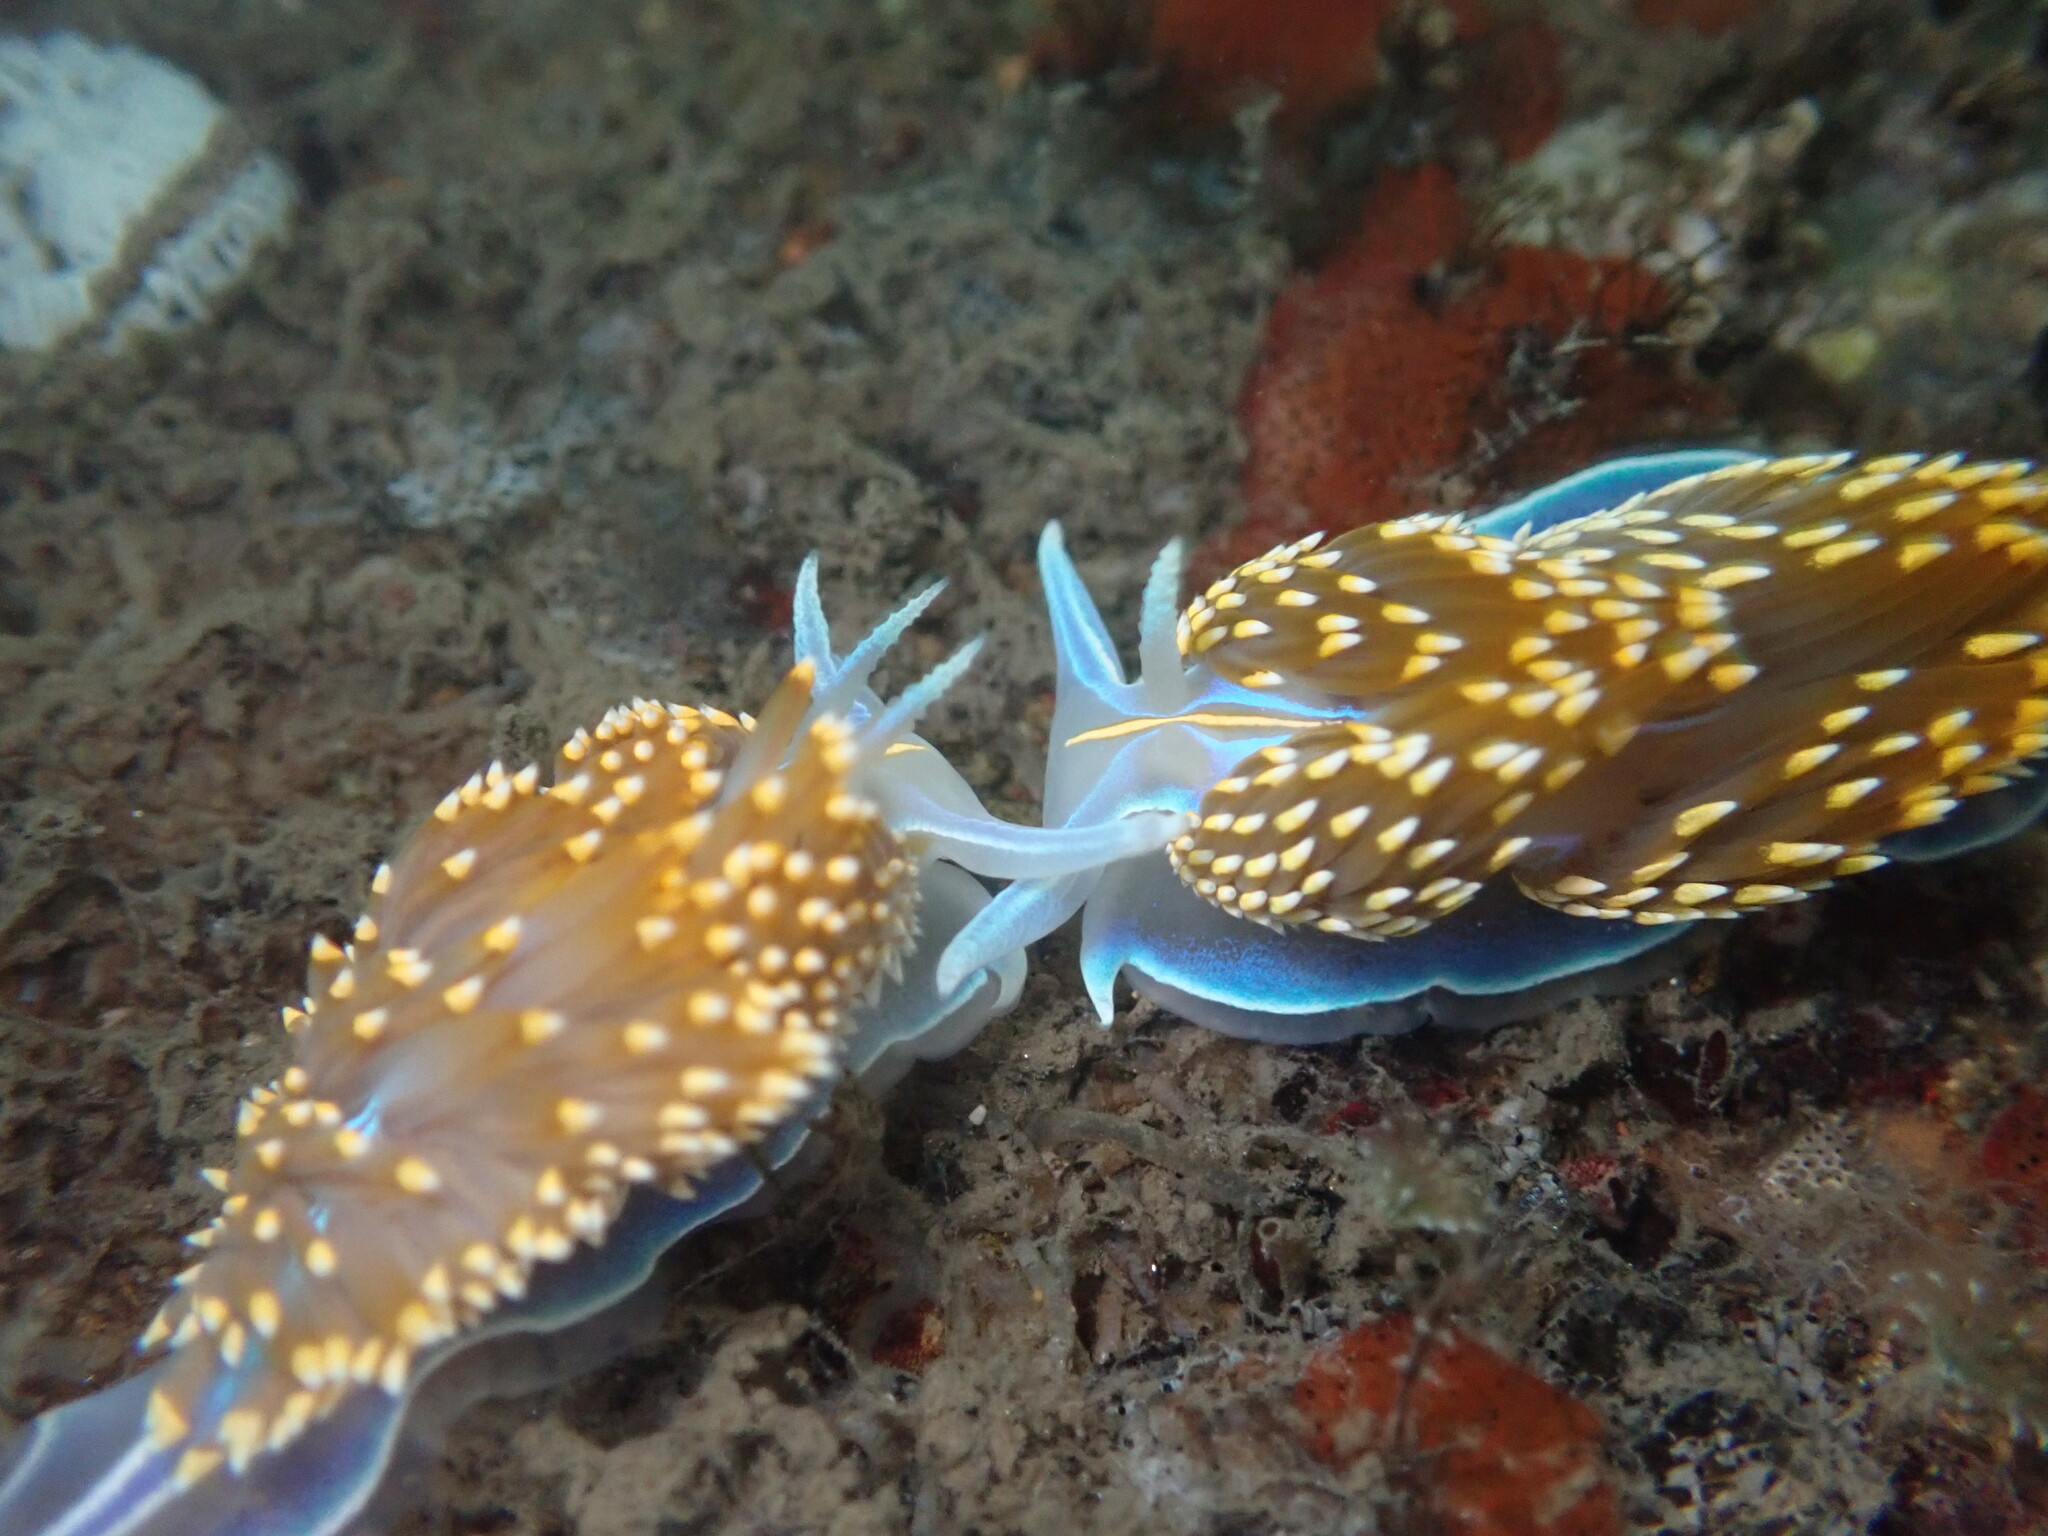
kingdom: Animalia
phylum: Mollusca
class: Gastropoda
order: Nudibranchia
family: Myrrhinidae
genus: Hermissenda
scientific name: Hermissenda opalescens
